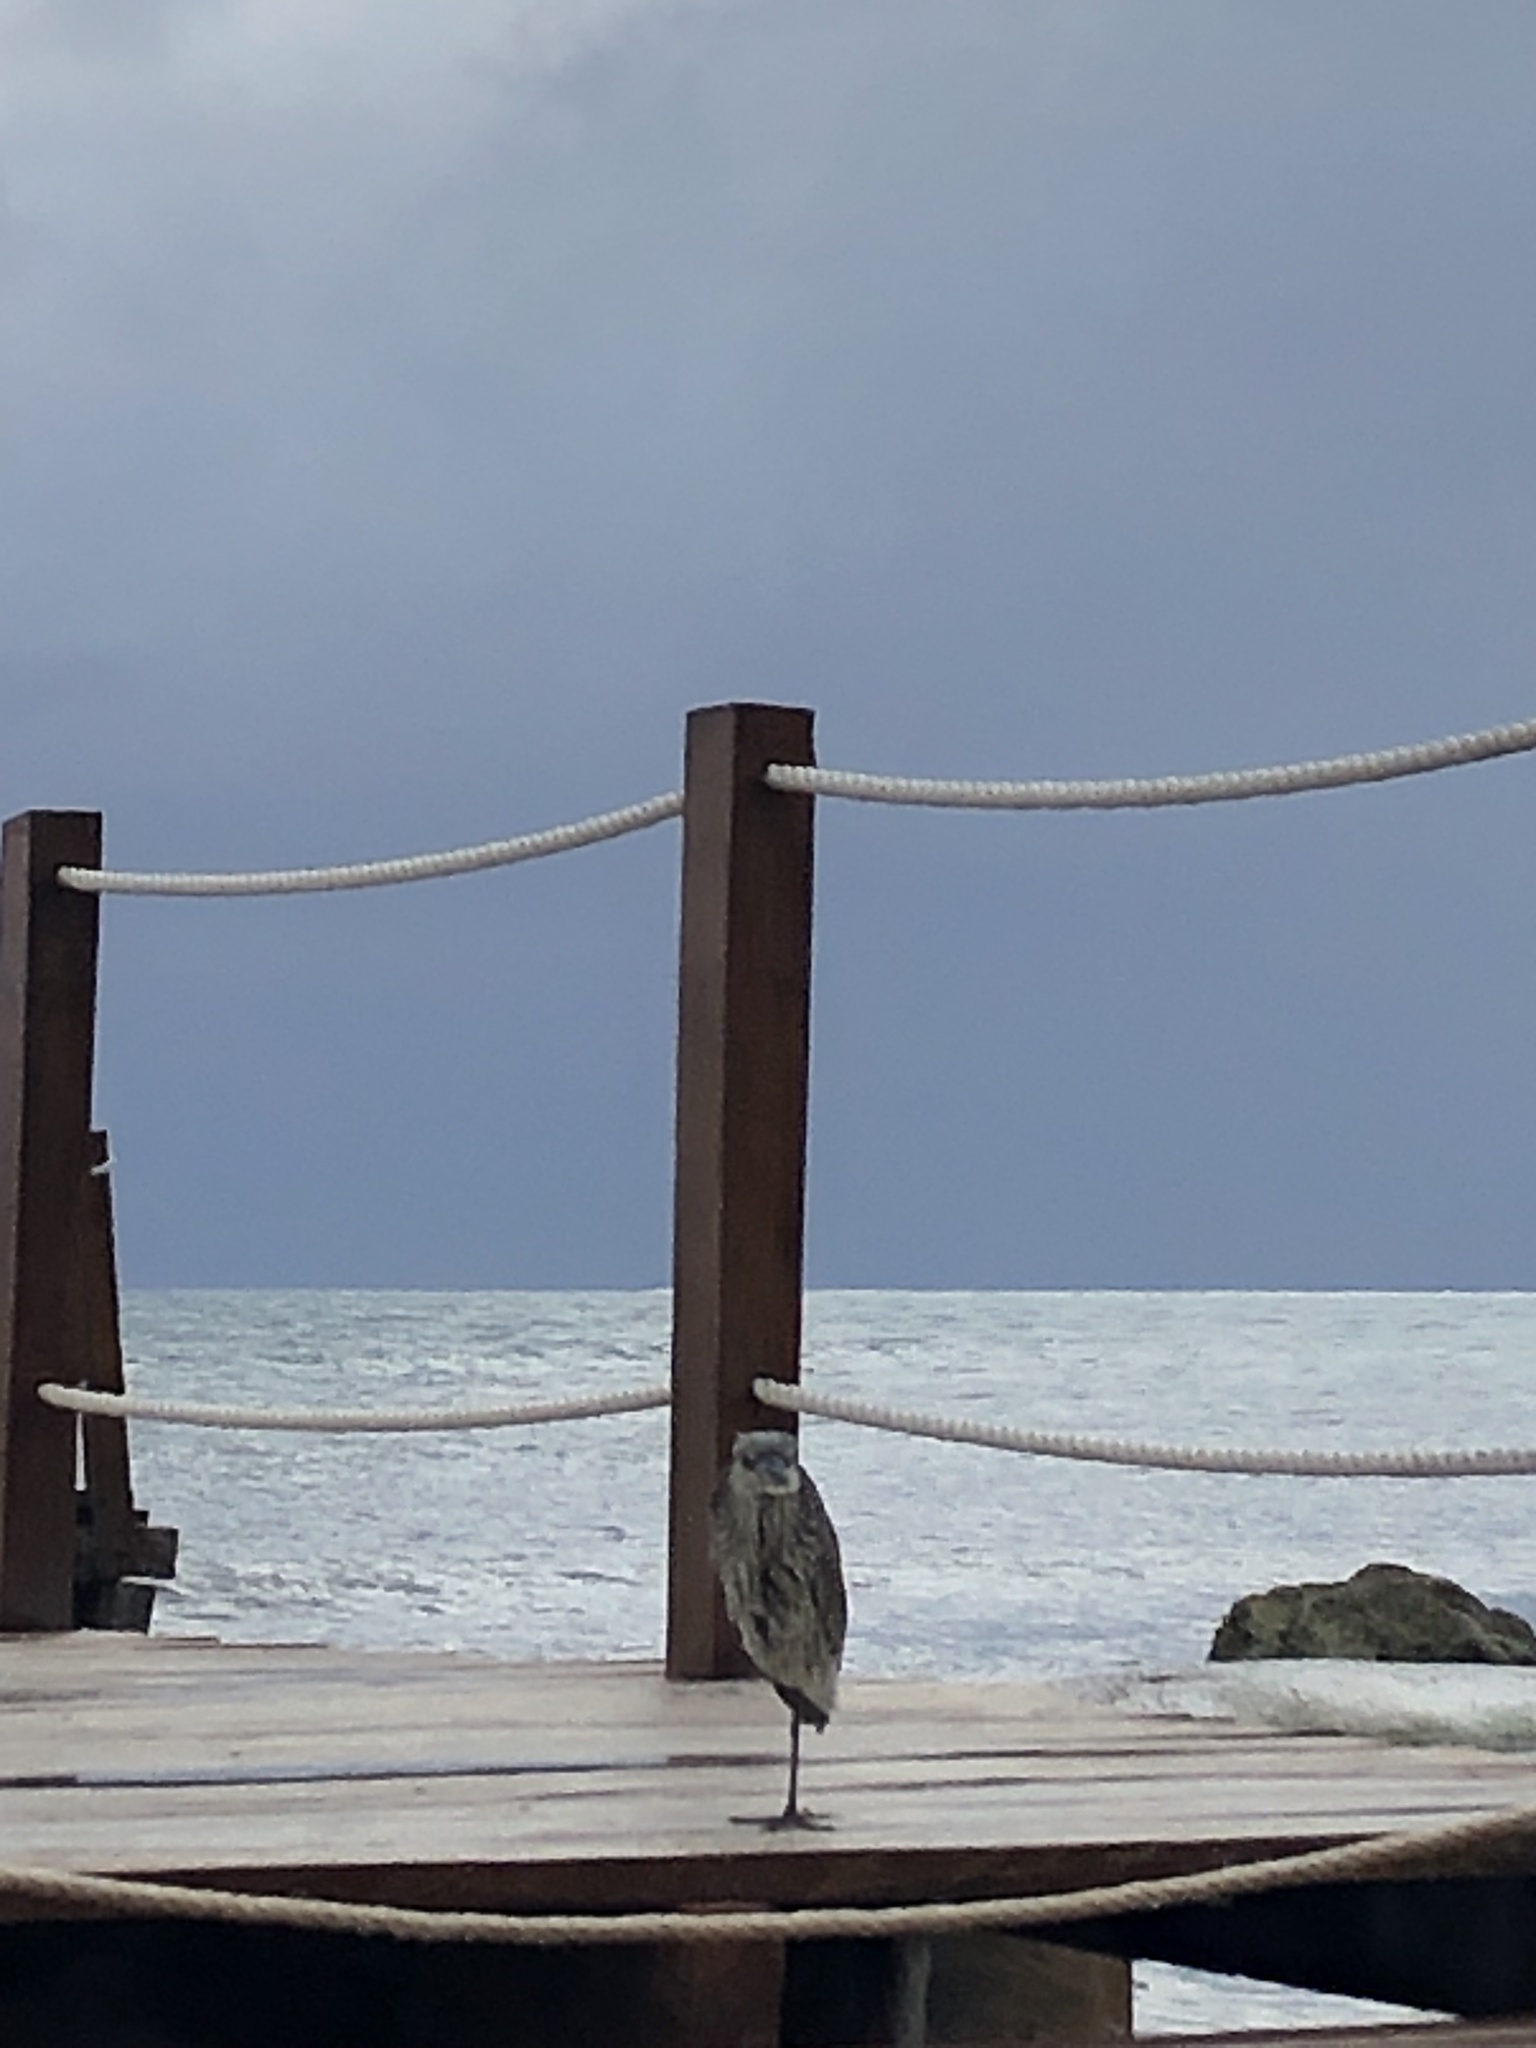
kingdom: Animalia
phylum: Chordata
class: Aves
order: Pelecaniformes
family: Ardeidae
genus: Nyctanassa
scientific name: Nyctanassa violacea
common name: Yellow-crowned night heron
